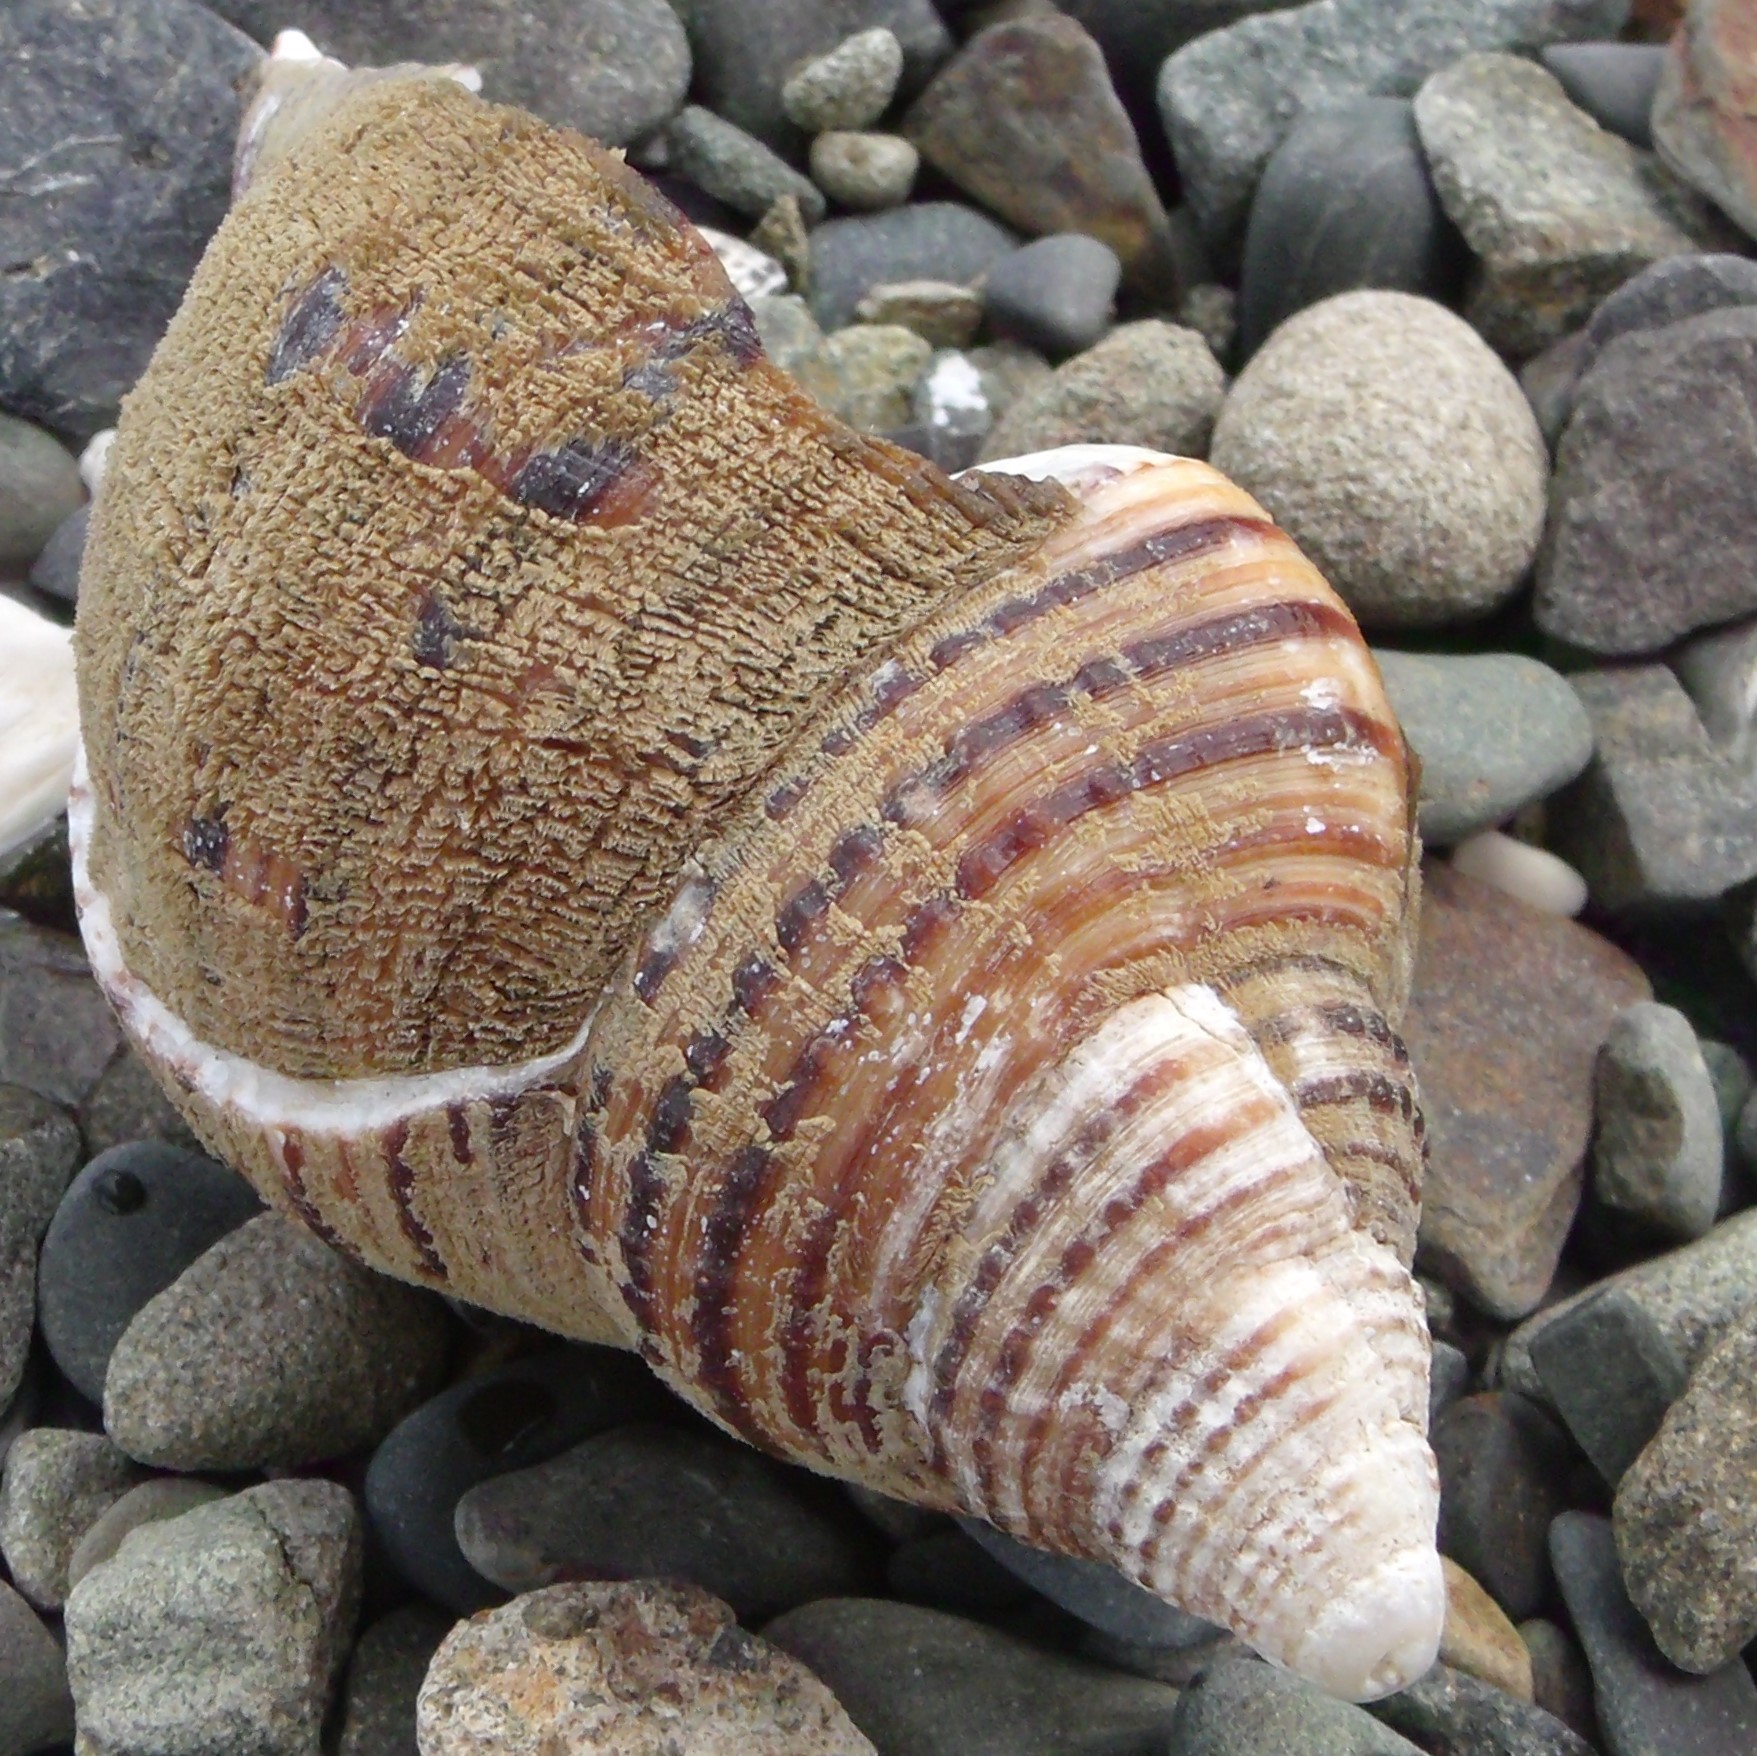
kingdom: Animalia
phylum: Mollusca
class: Gastropoda
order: Littorinimorpha
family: Cymatiidae
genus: Argobuccinum
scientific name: Argobuccinum pustulosum
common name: Pustular triton
